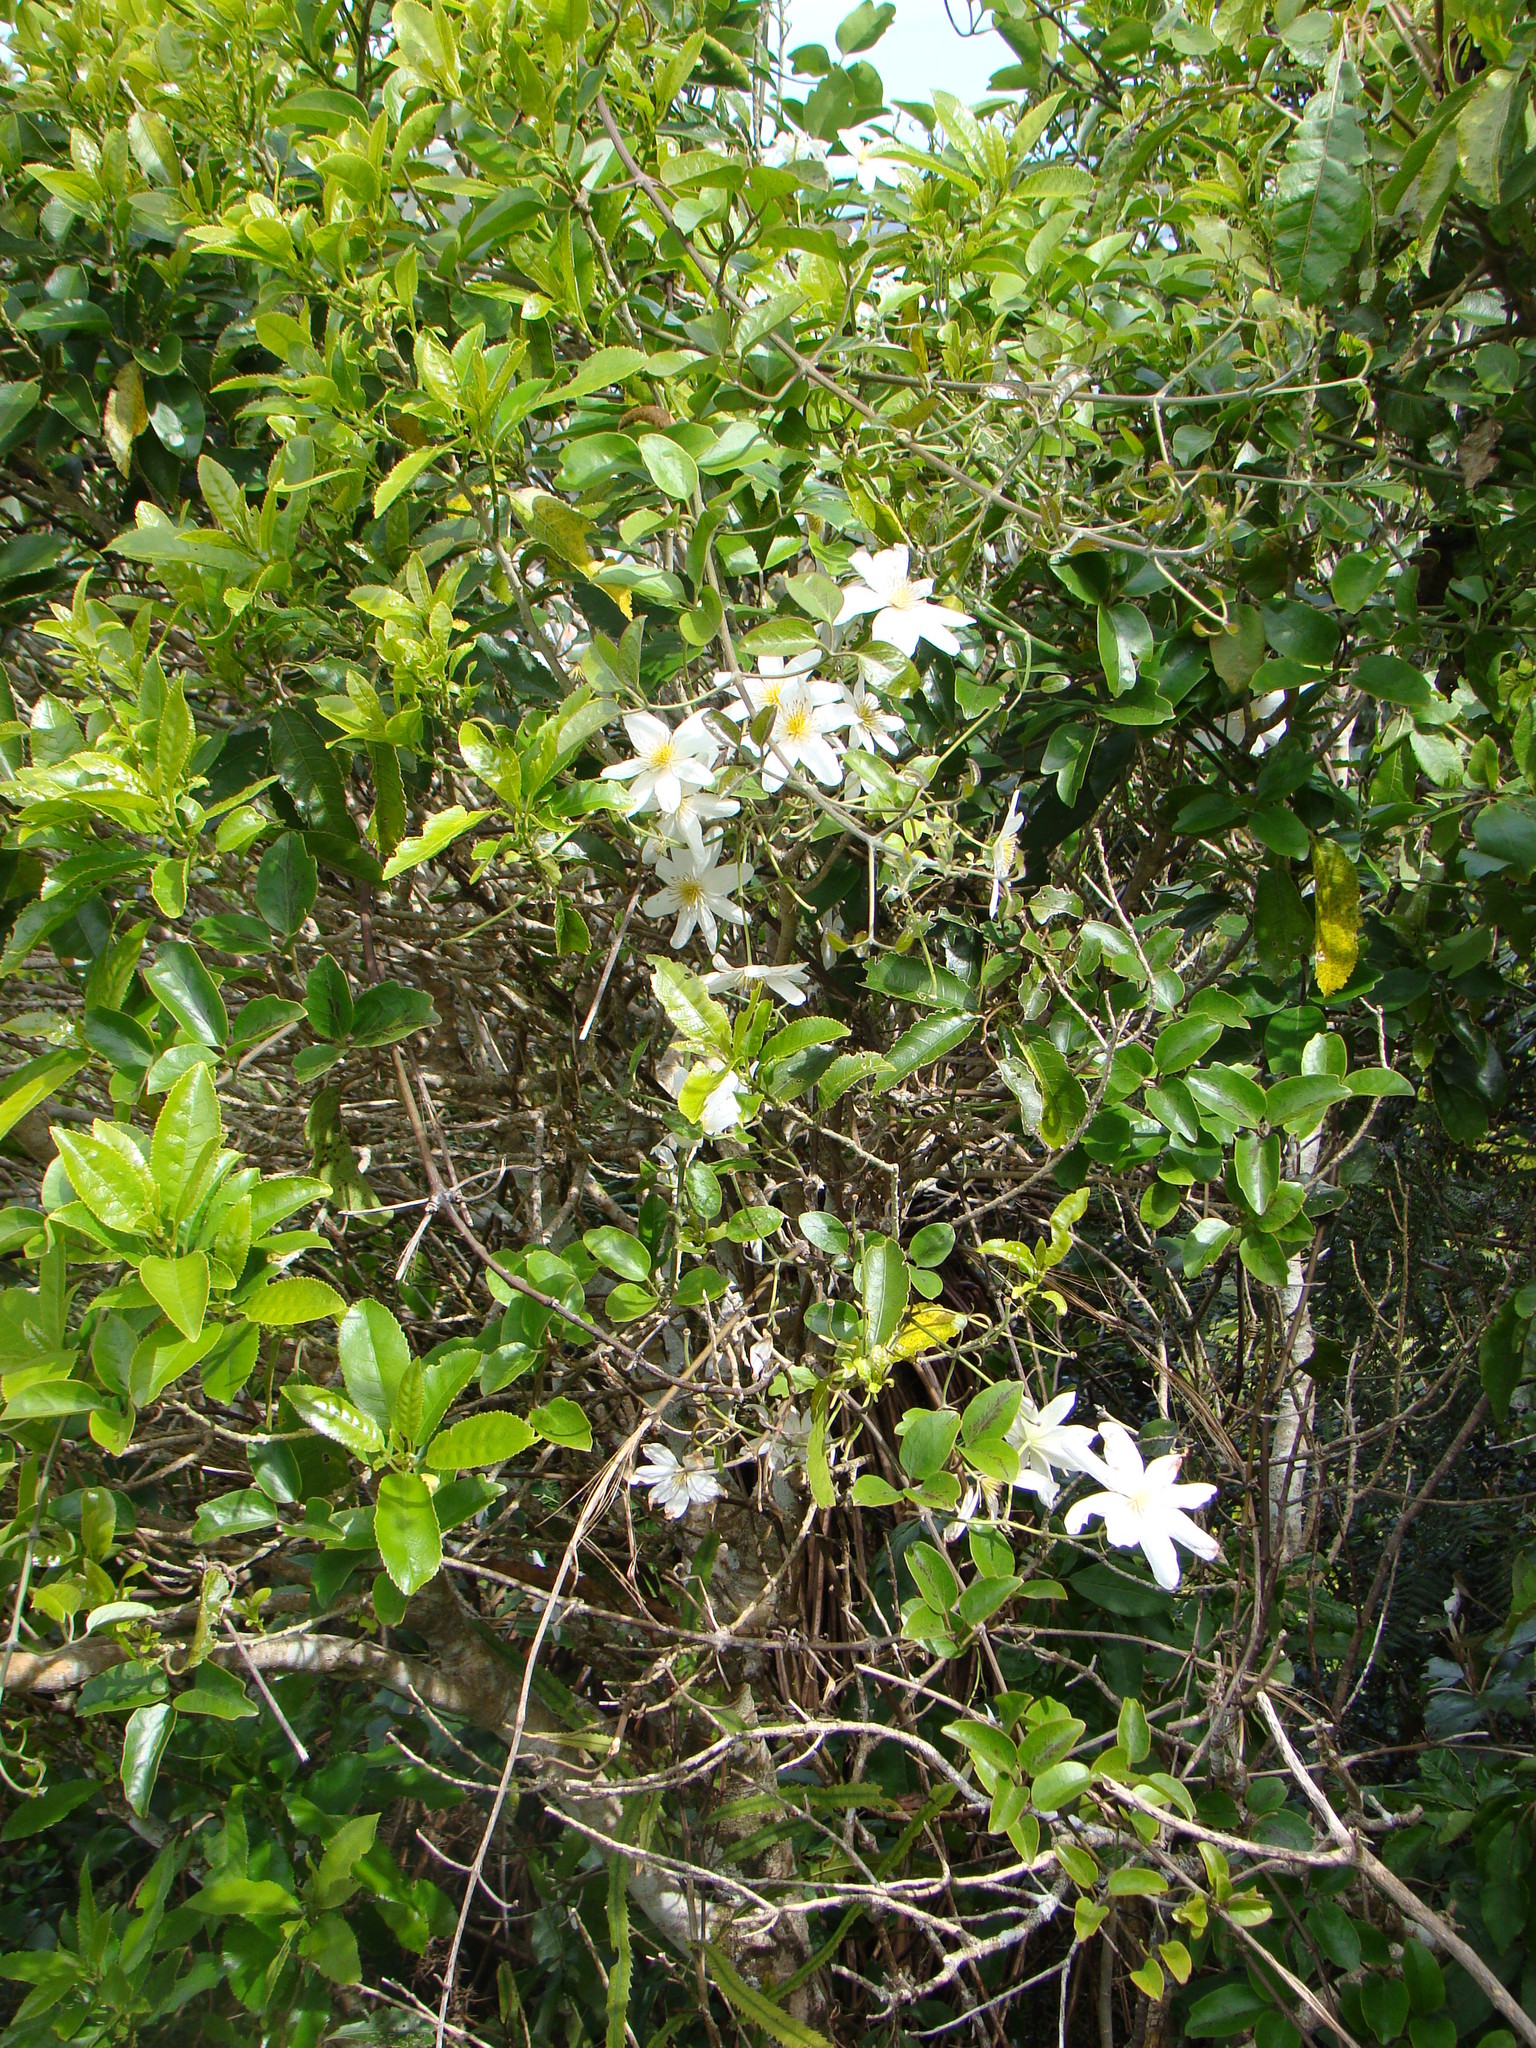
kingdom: Plantae
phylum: Tracheophyta
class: Magnoliopsida
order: Ranunculales
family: Ranunculaceae
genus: Clematis
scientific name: Clematis paniculata
